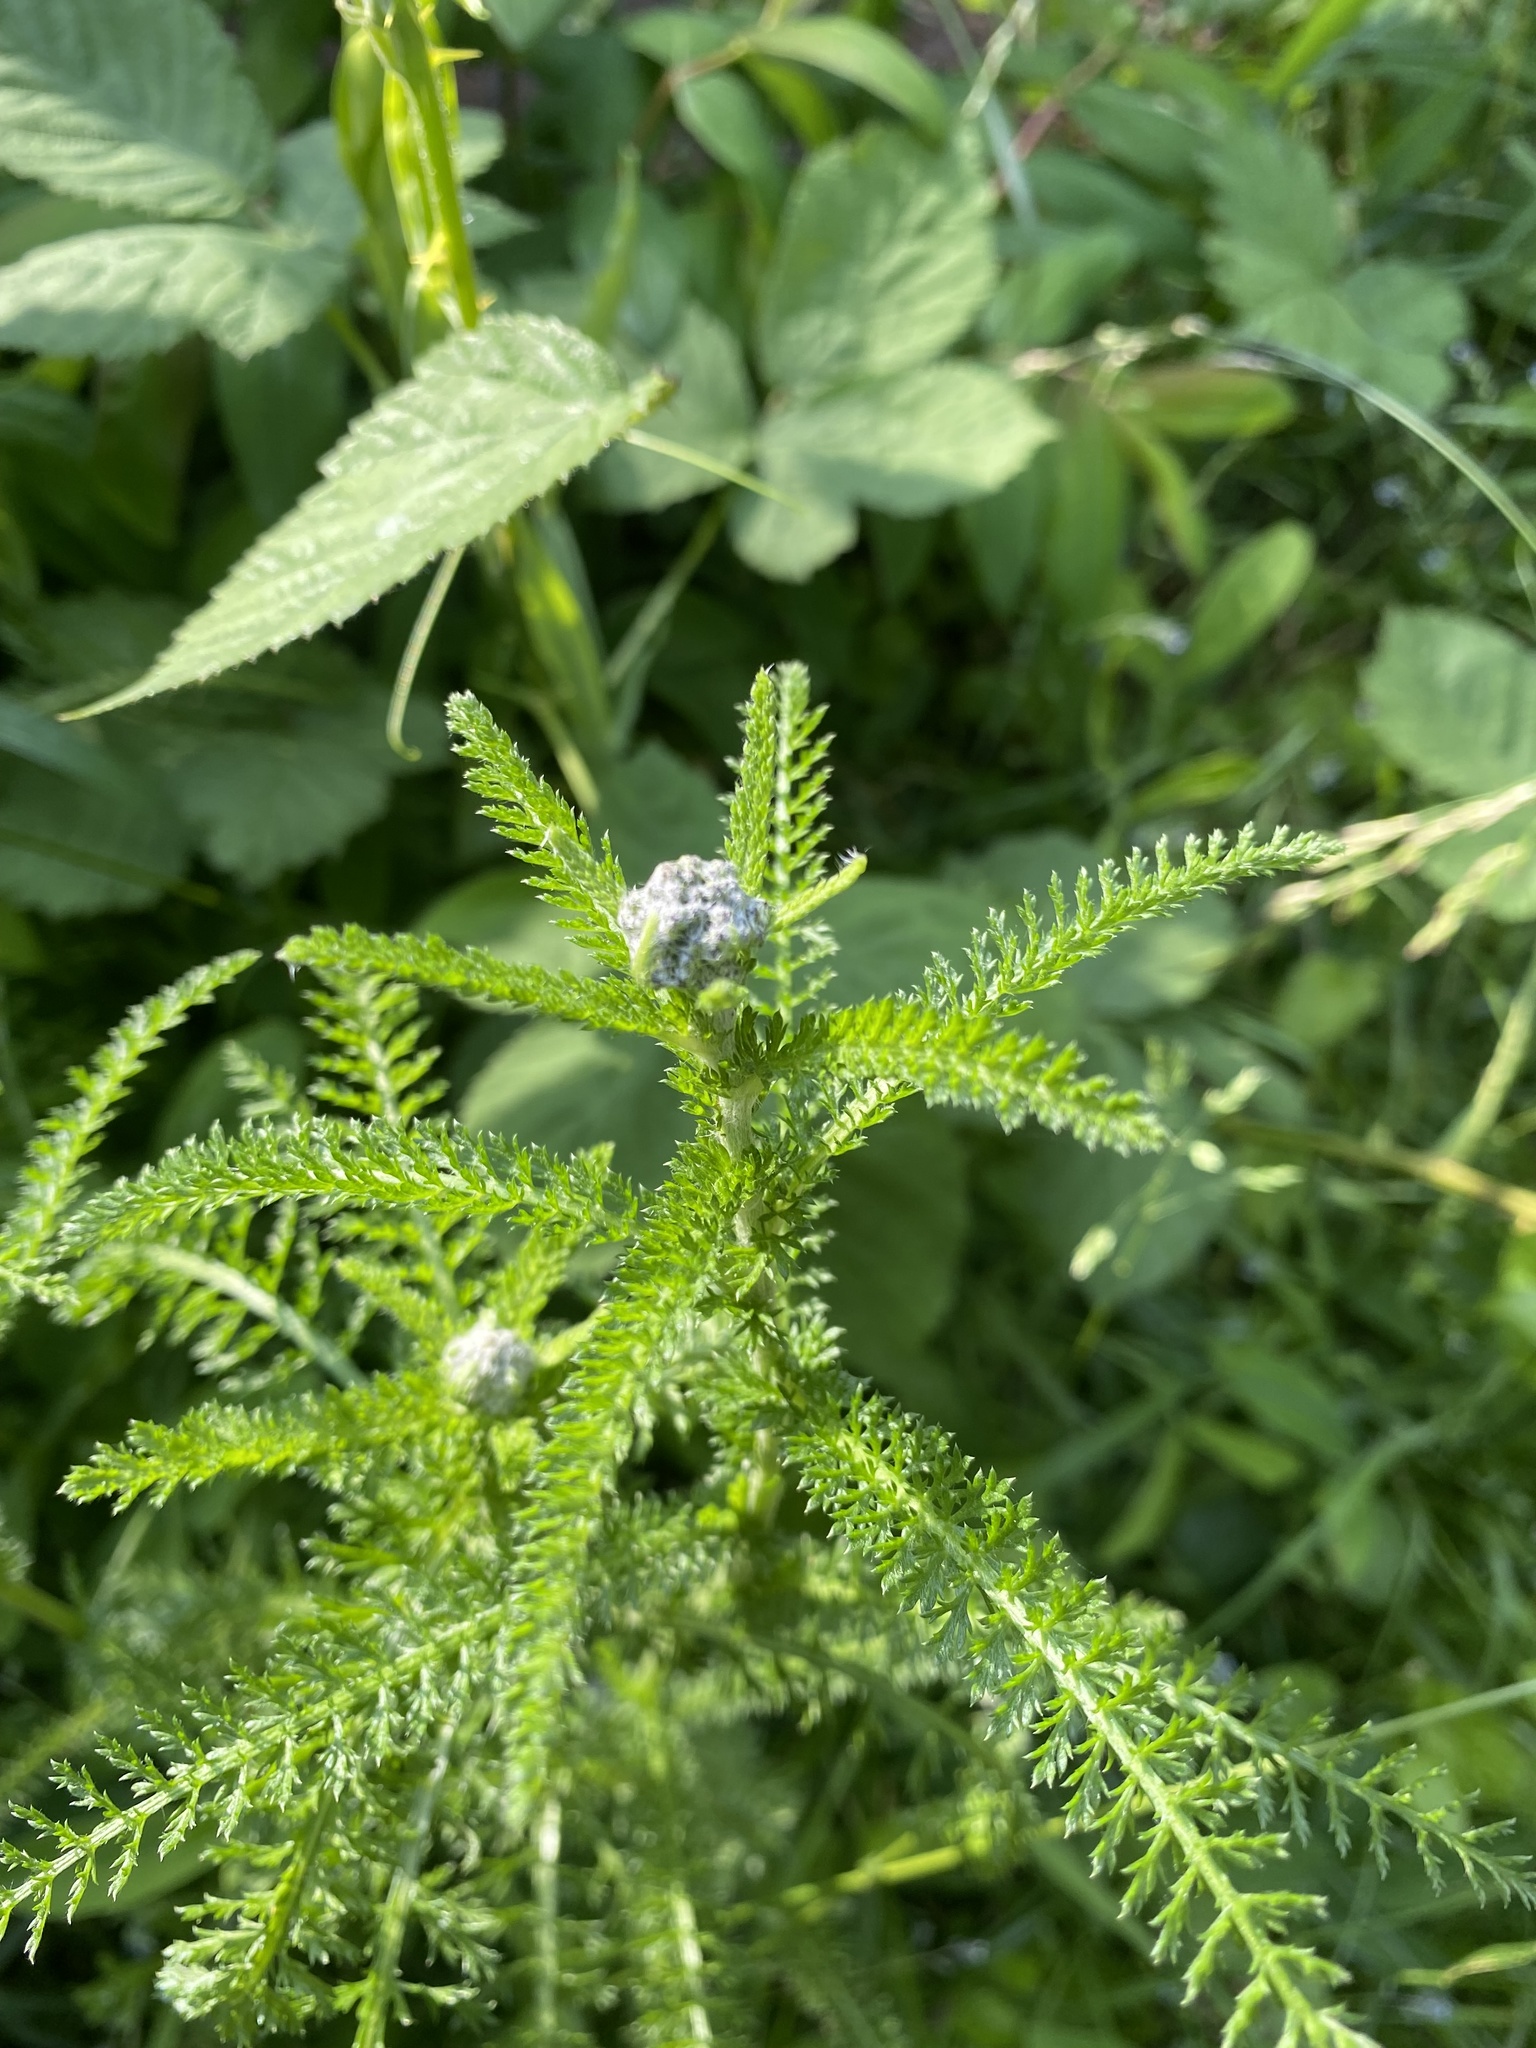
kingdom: Plantae
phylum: Tracheophyta
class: Magnoliopsida
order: Asterales
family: Asteraceae
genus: Achillea
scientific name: Achillea millefolium
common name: Yarrow
